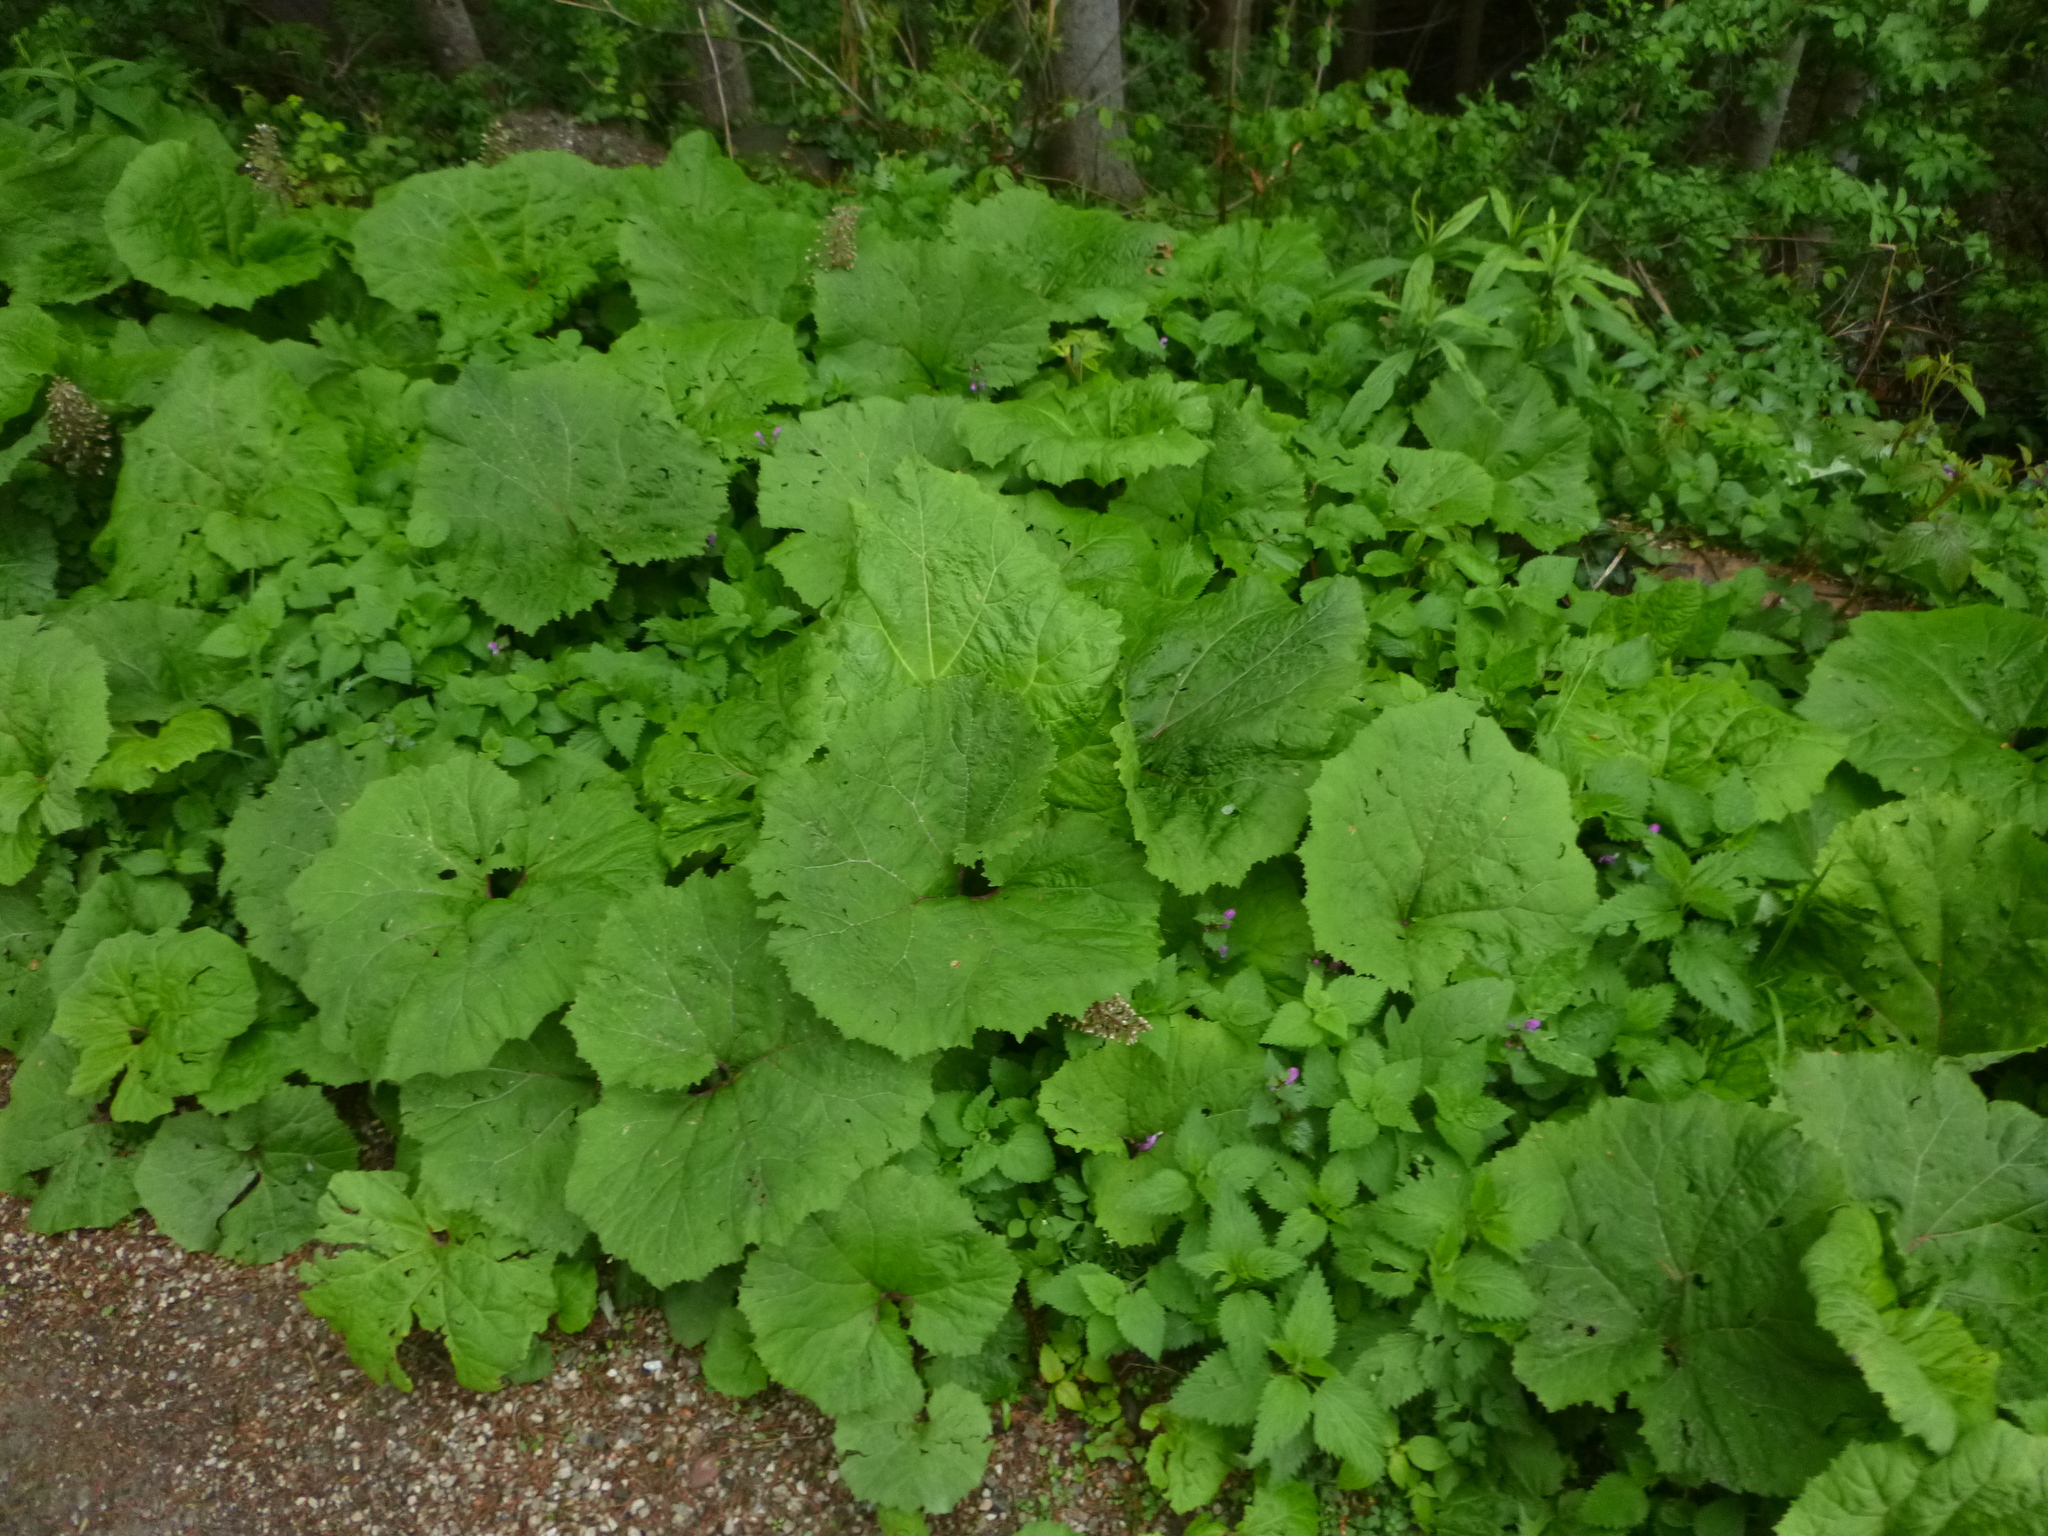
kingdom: Plantae
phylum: Tracheophyta
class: Magnoliopsida
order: Asterales
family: Asteraceae
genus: Petasites
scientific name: Petasites hybridus
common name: Butterbur
